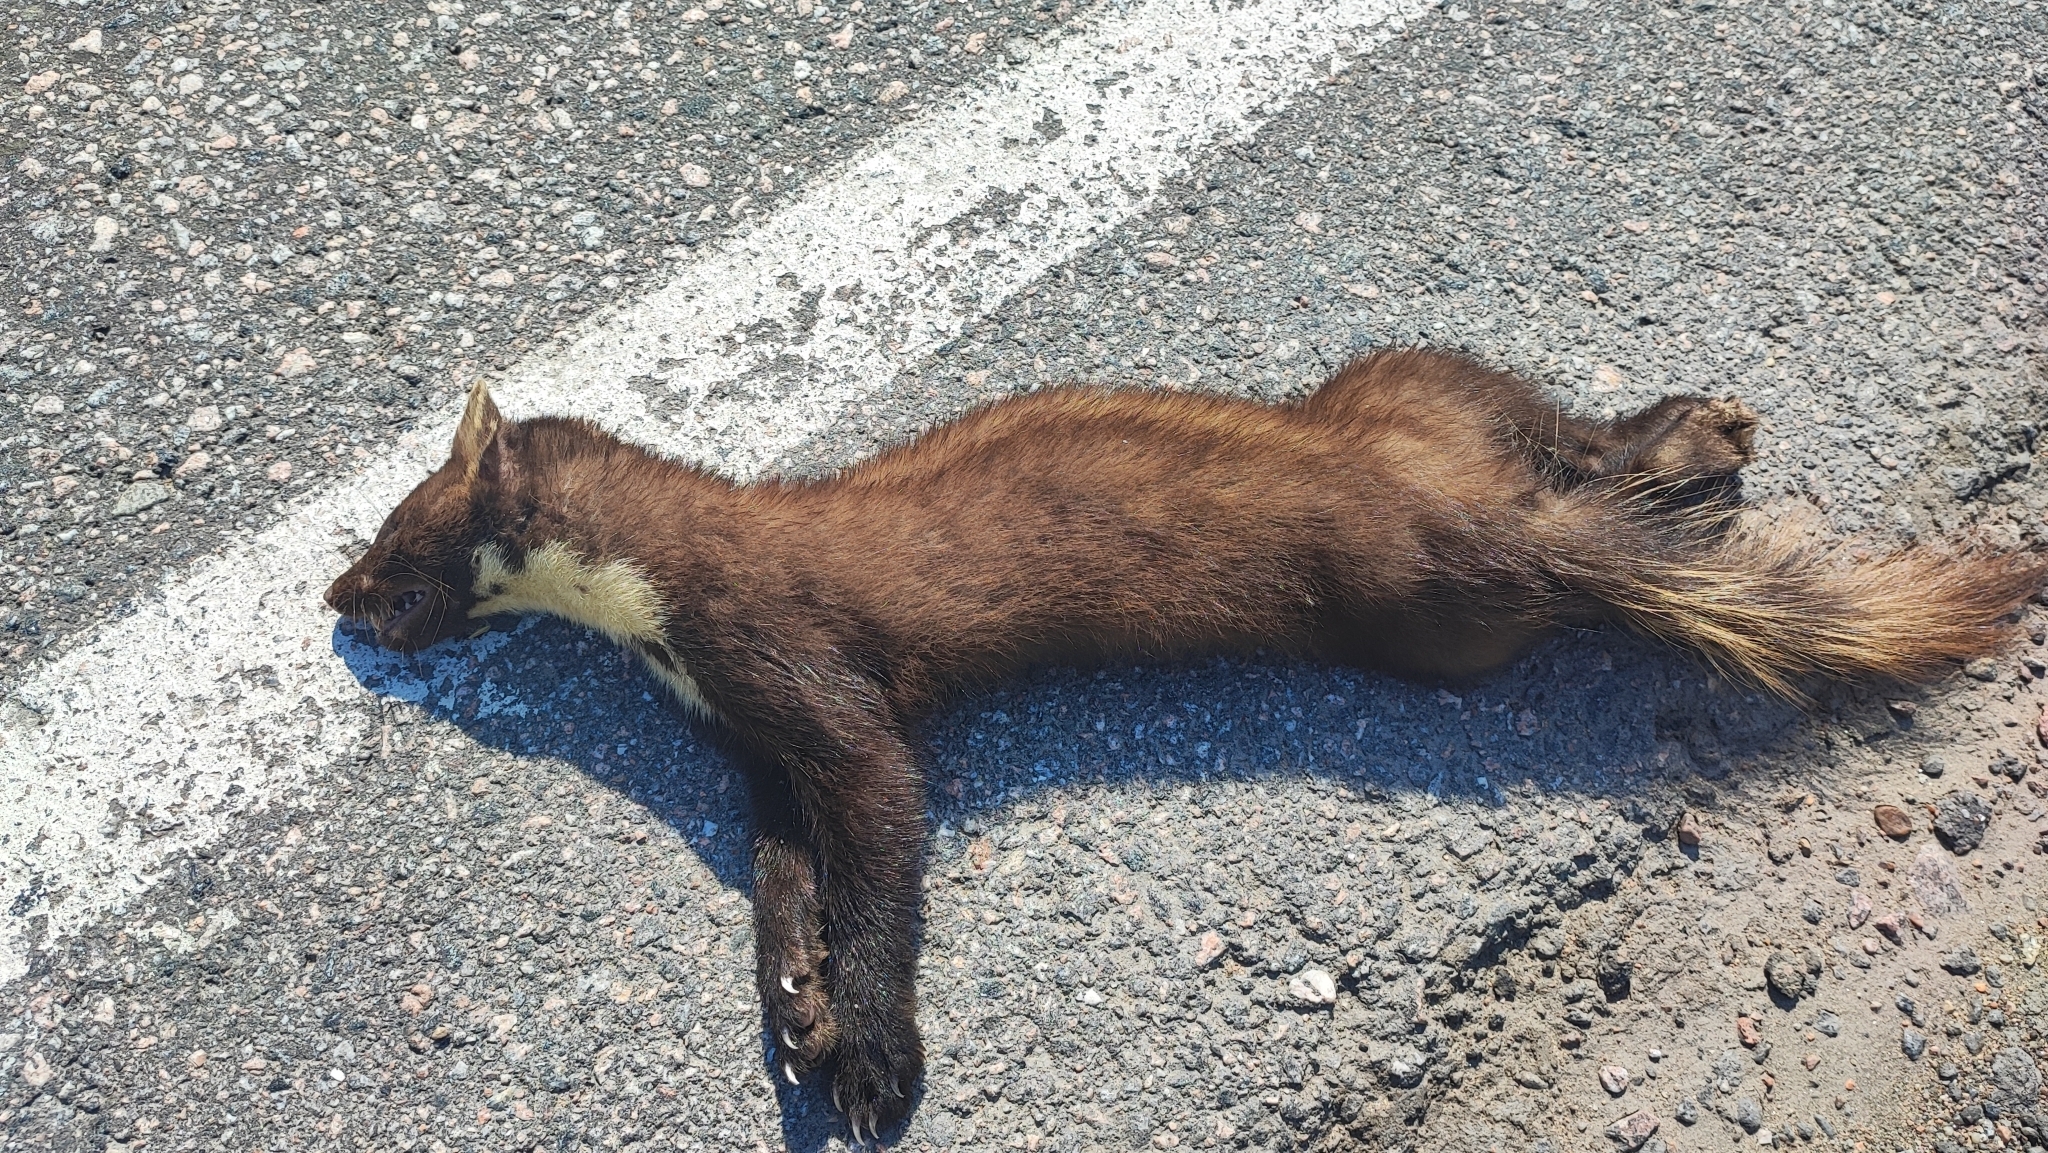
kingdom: Animalia
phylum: Chordata
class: Mammalia
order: Carnivora
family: Mustelidae
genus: Martes
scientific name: Martes martes
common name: European pine marten
